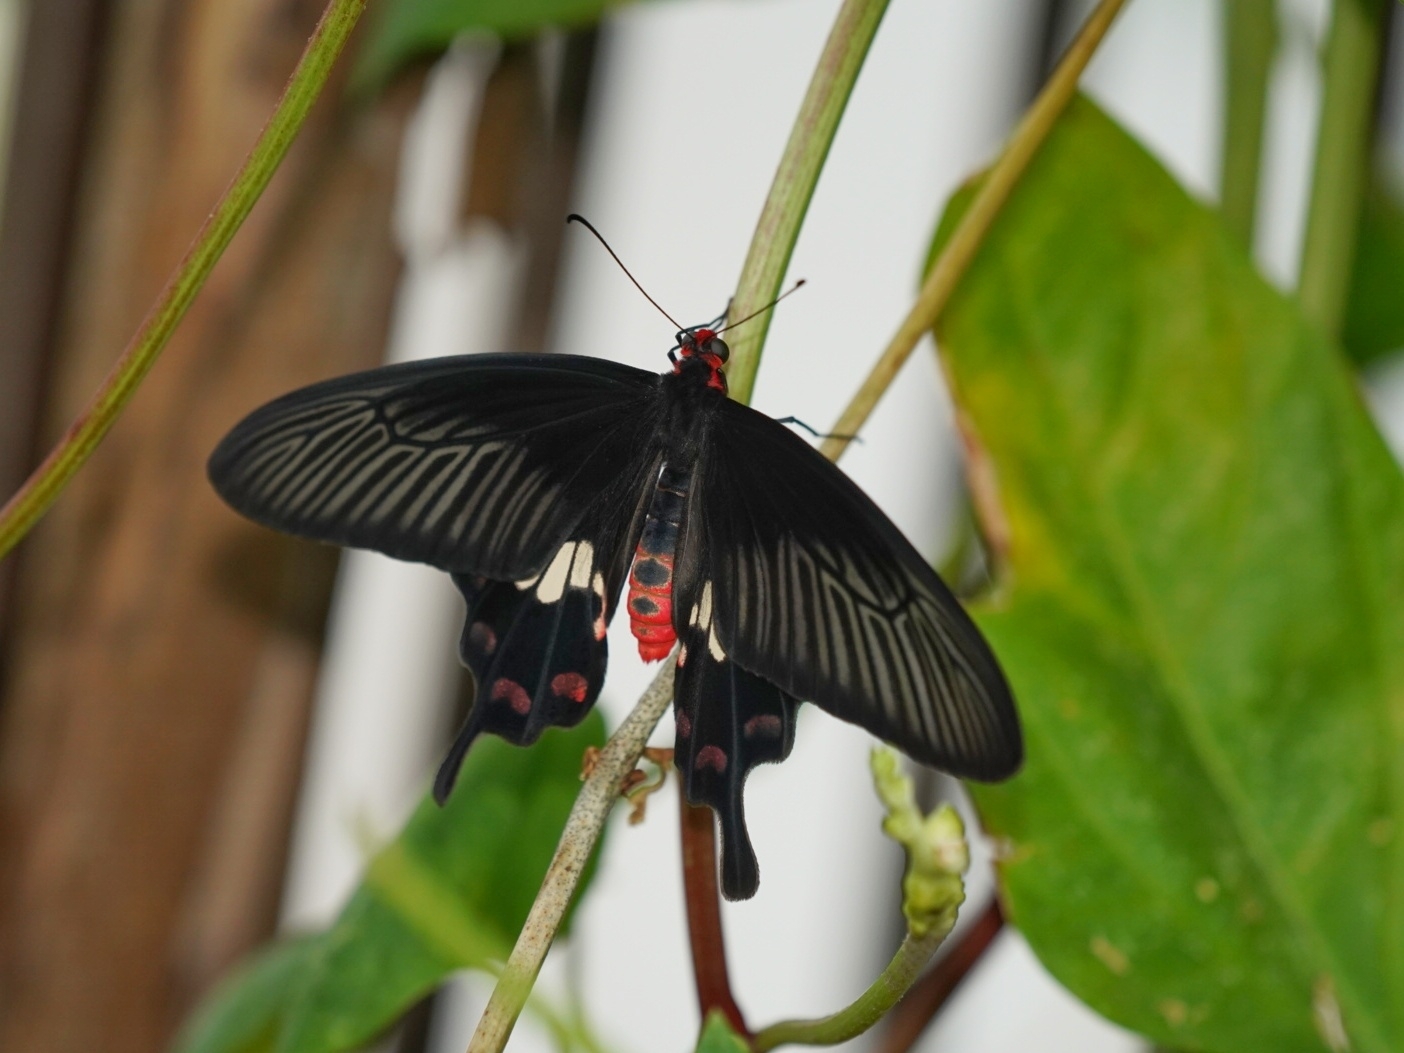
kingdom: Animalia
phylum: Arthropoda
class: Insecta
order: Lepidoptera
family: Papilionidae
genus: Pachliopta
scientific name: Pachliopta aristolochiae
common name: Common rose
